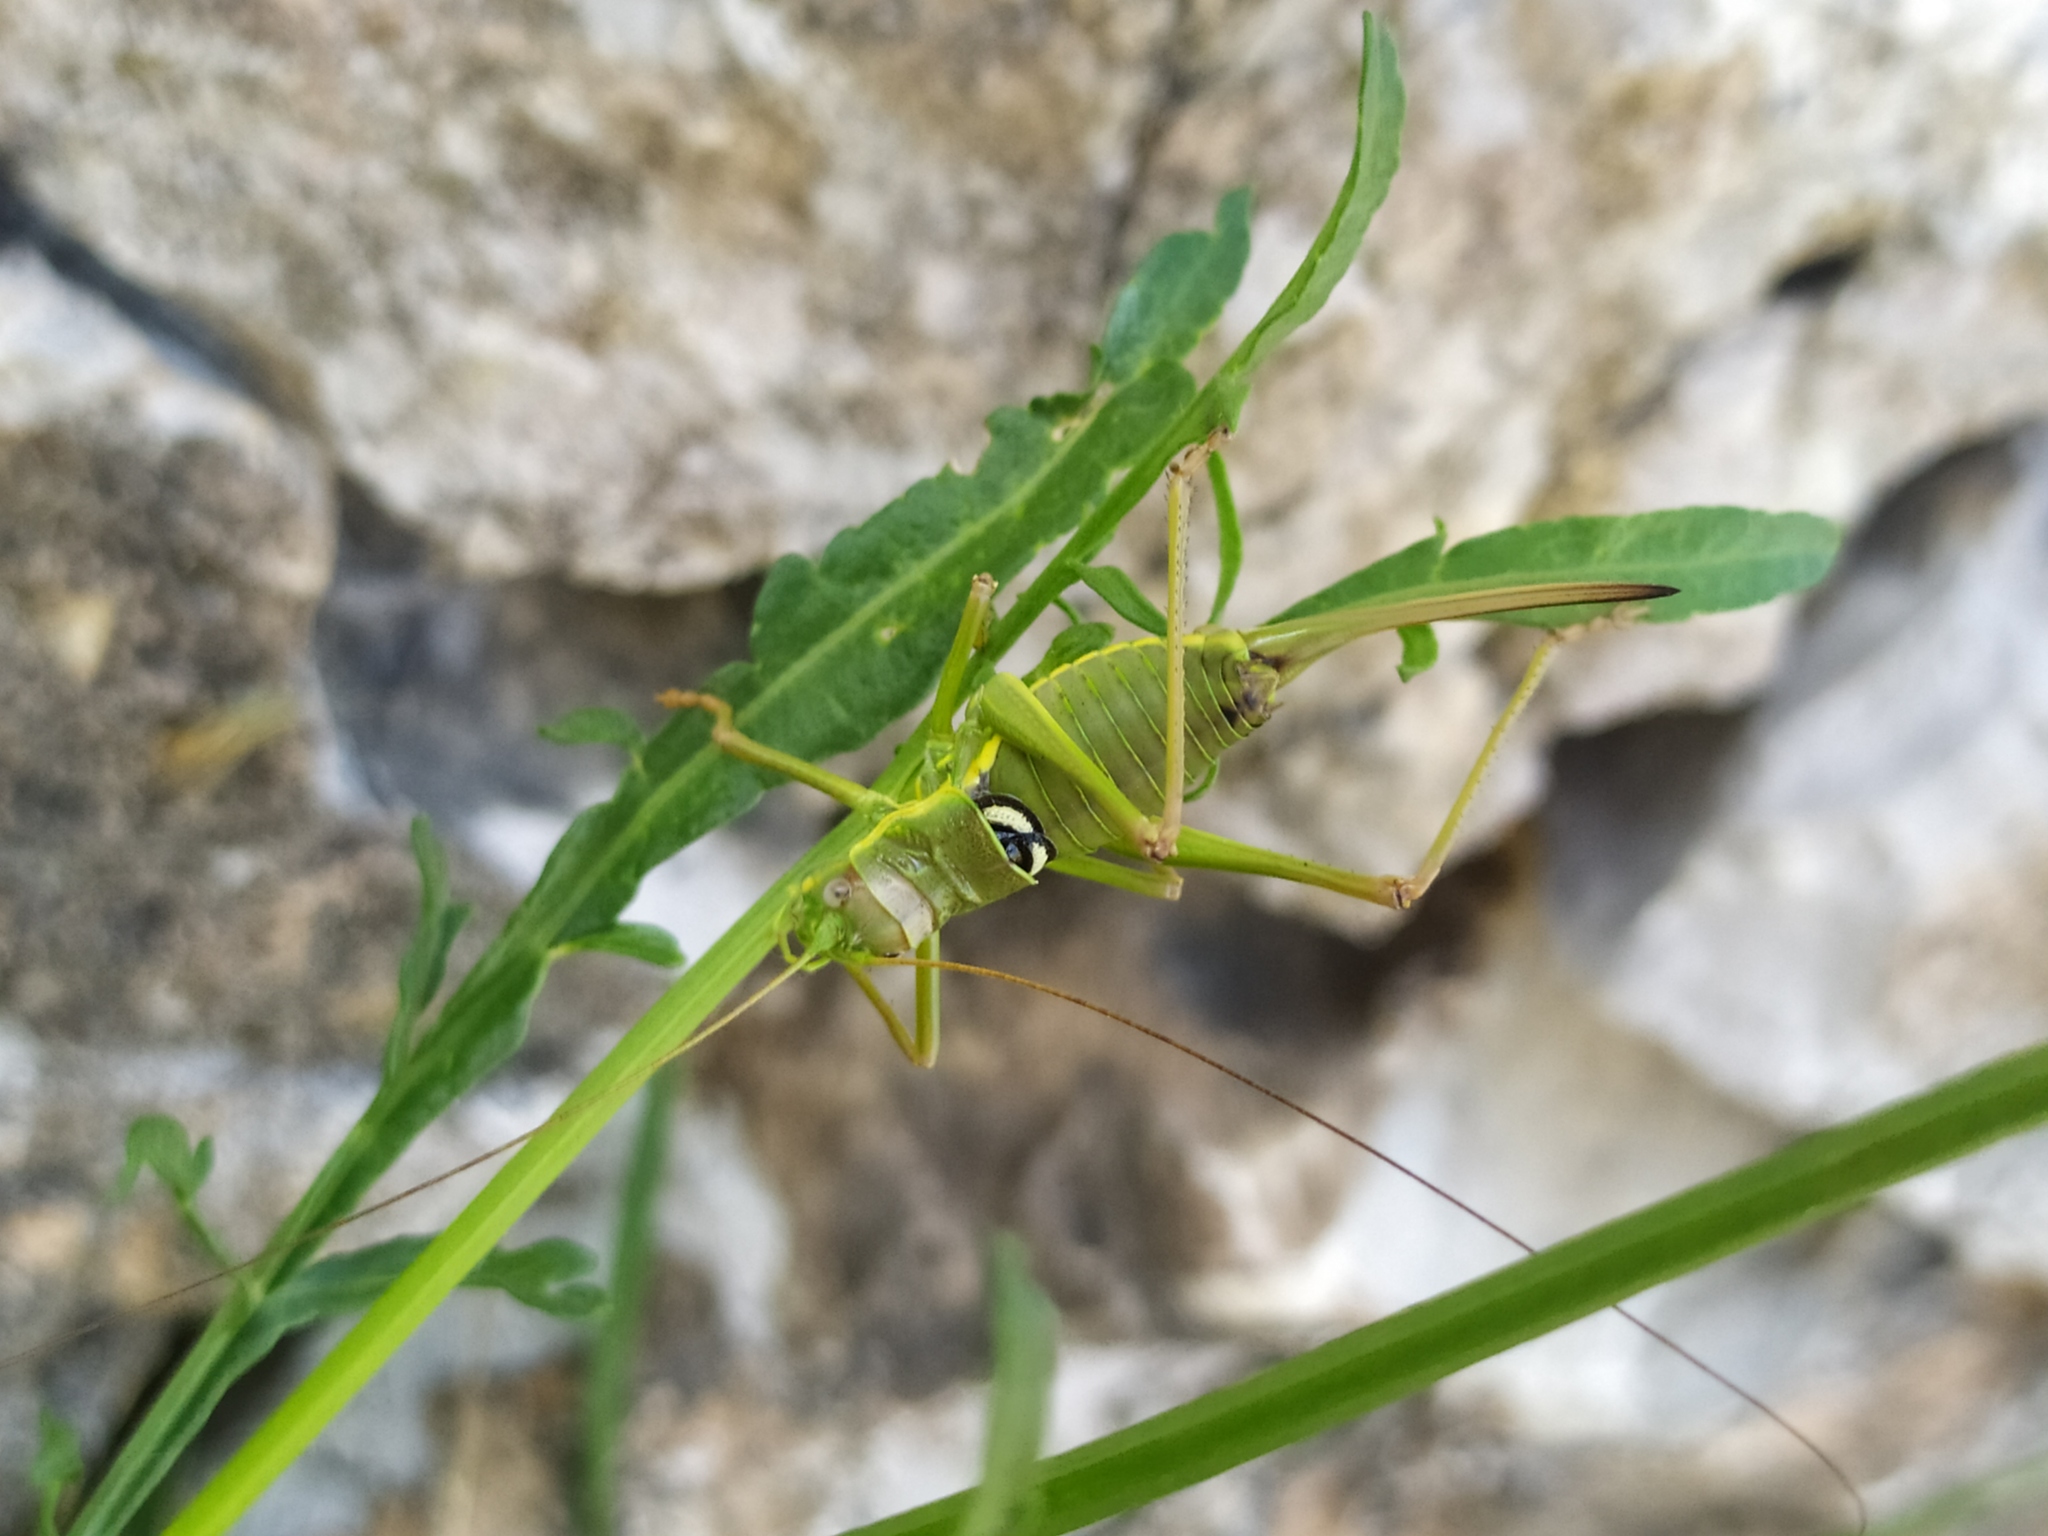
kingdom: Animalia
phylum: Arthropoda
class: Insecta
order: Orthoptera
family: Tettigoniidae
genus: Dinarippiger
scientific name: Dinarippiger discoidalis
